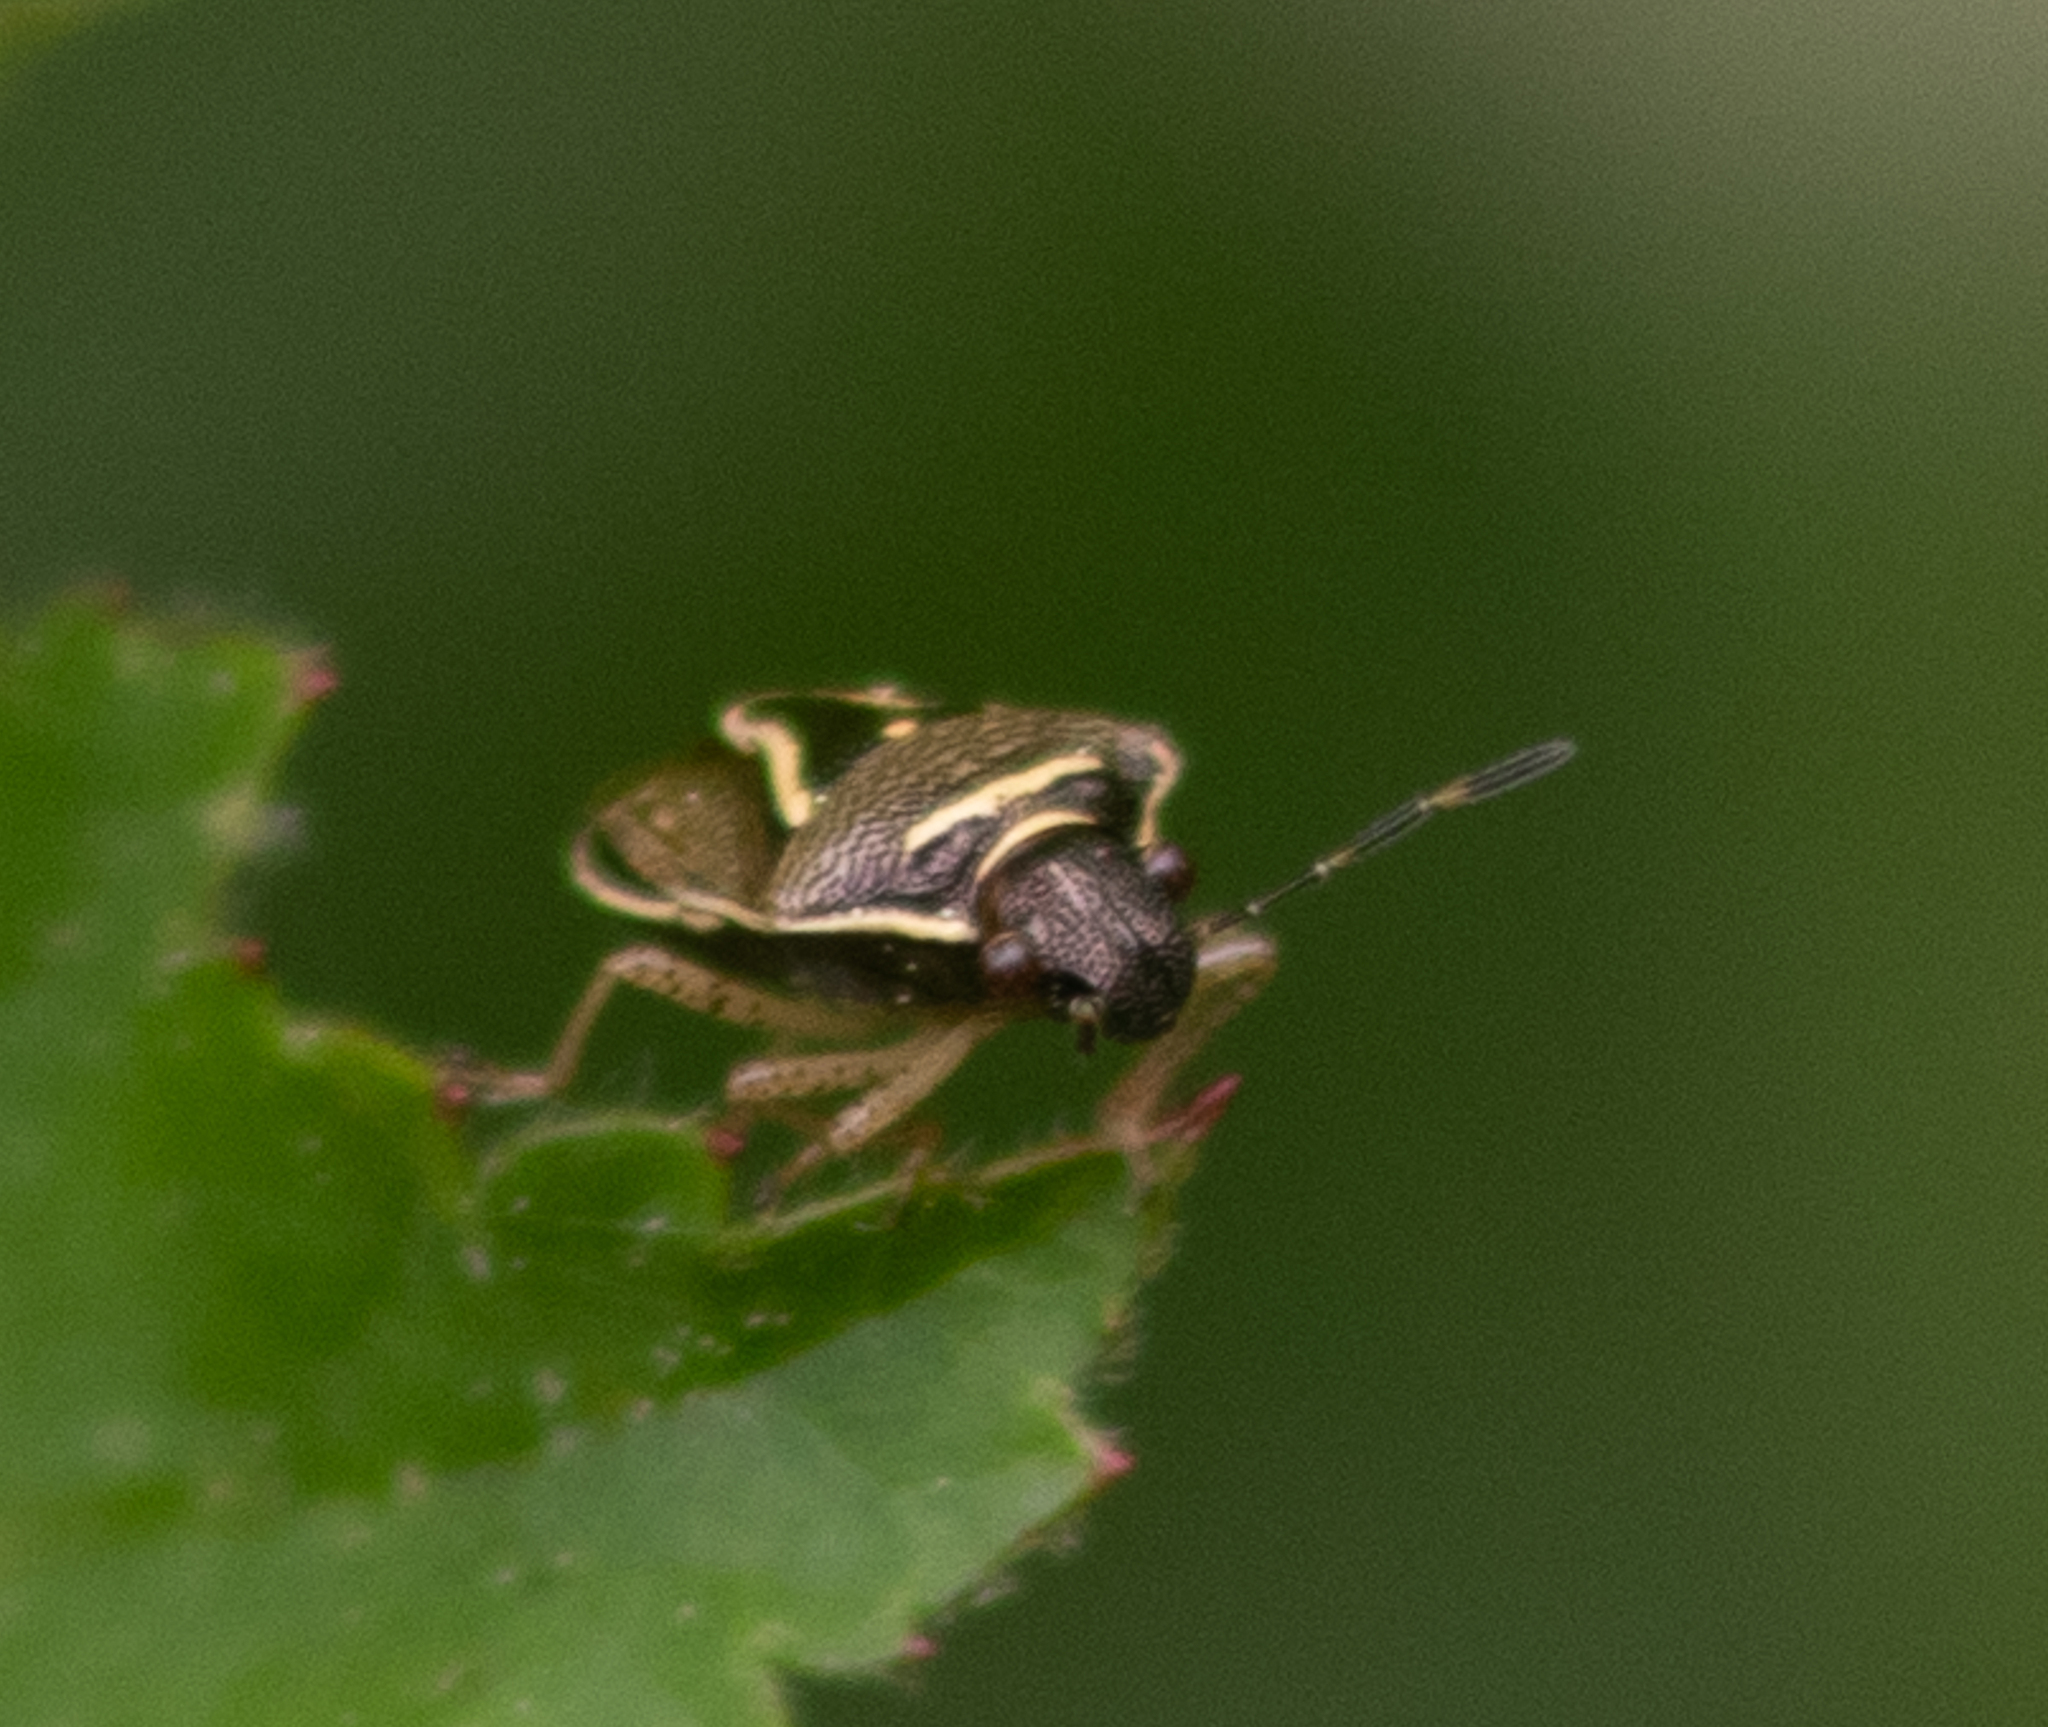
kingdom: Animalia
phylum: Arthropoda
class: Insecta
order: Hemiptera
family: Pentatomidae
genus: Mormidea
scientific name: Mormidea lugens
